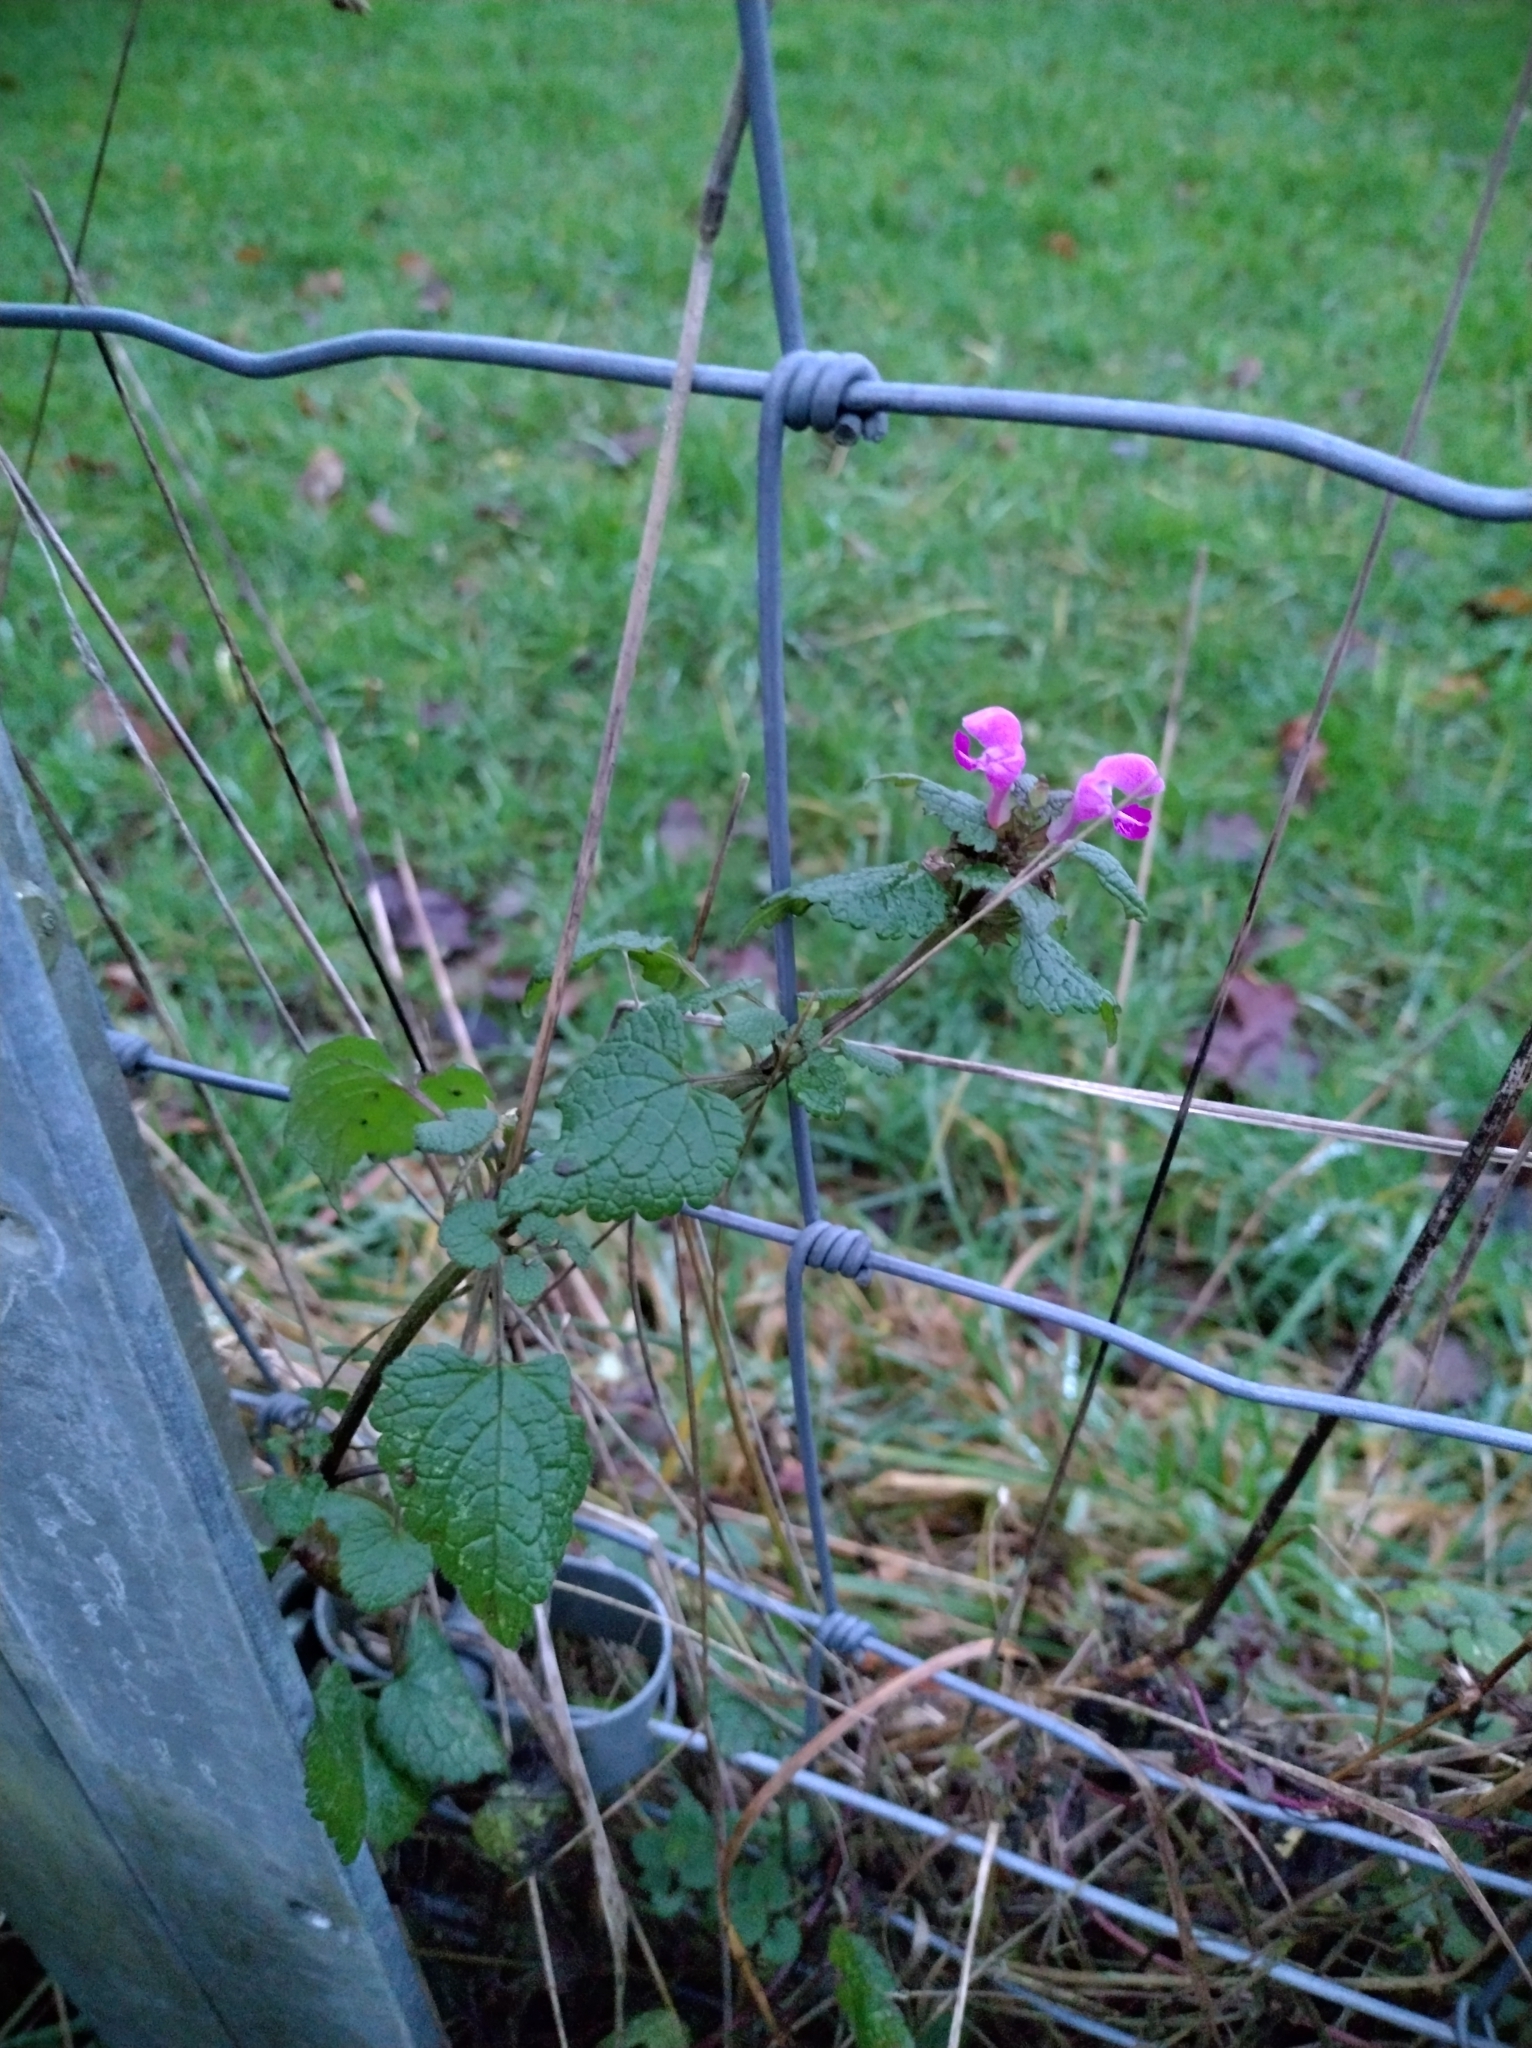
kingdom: Plantae
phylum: Tracheophyta
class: Magnoliopsida
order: Lamiales
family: Lamiaceae
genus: Lamium
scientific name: Lamium maculatum
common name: Spotted dead-nettle
